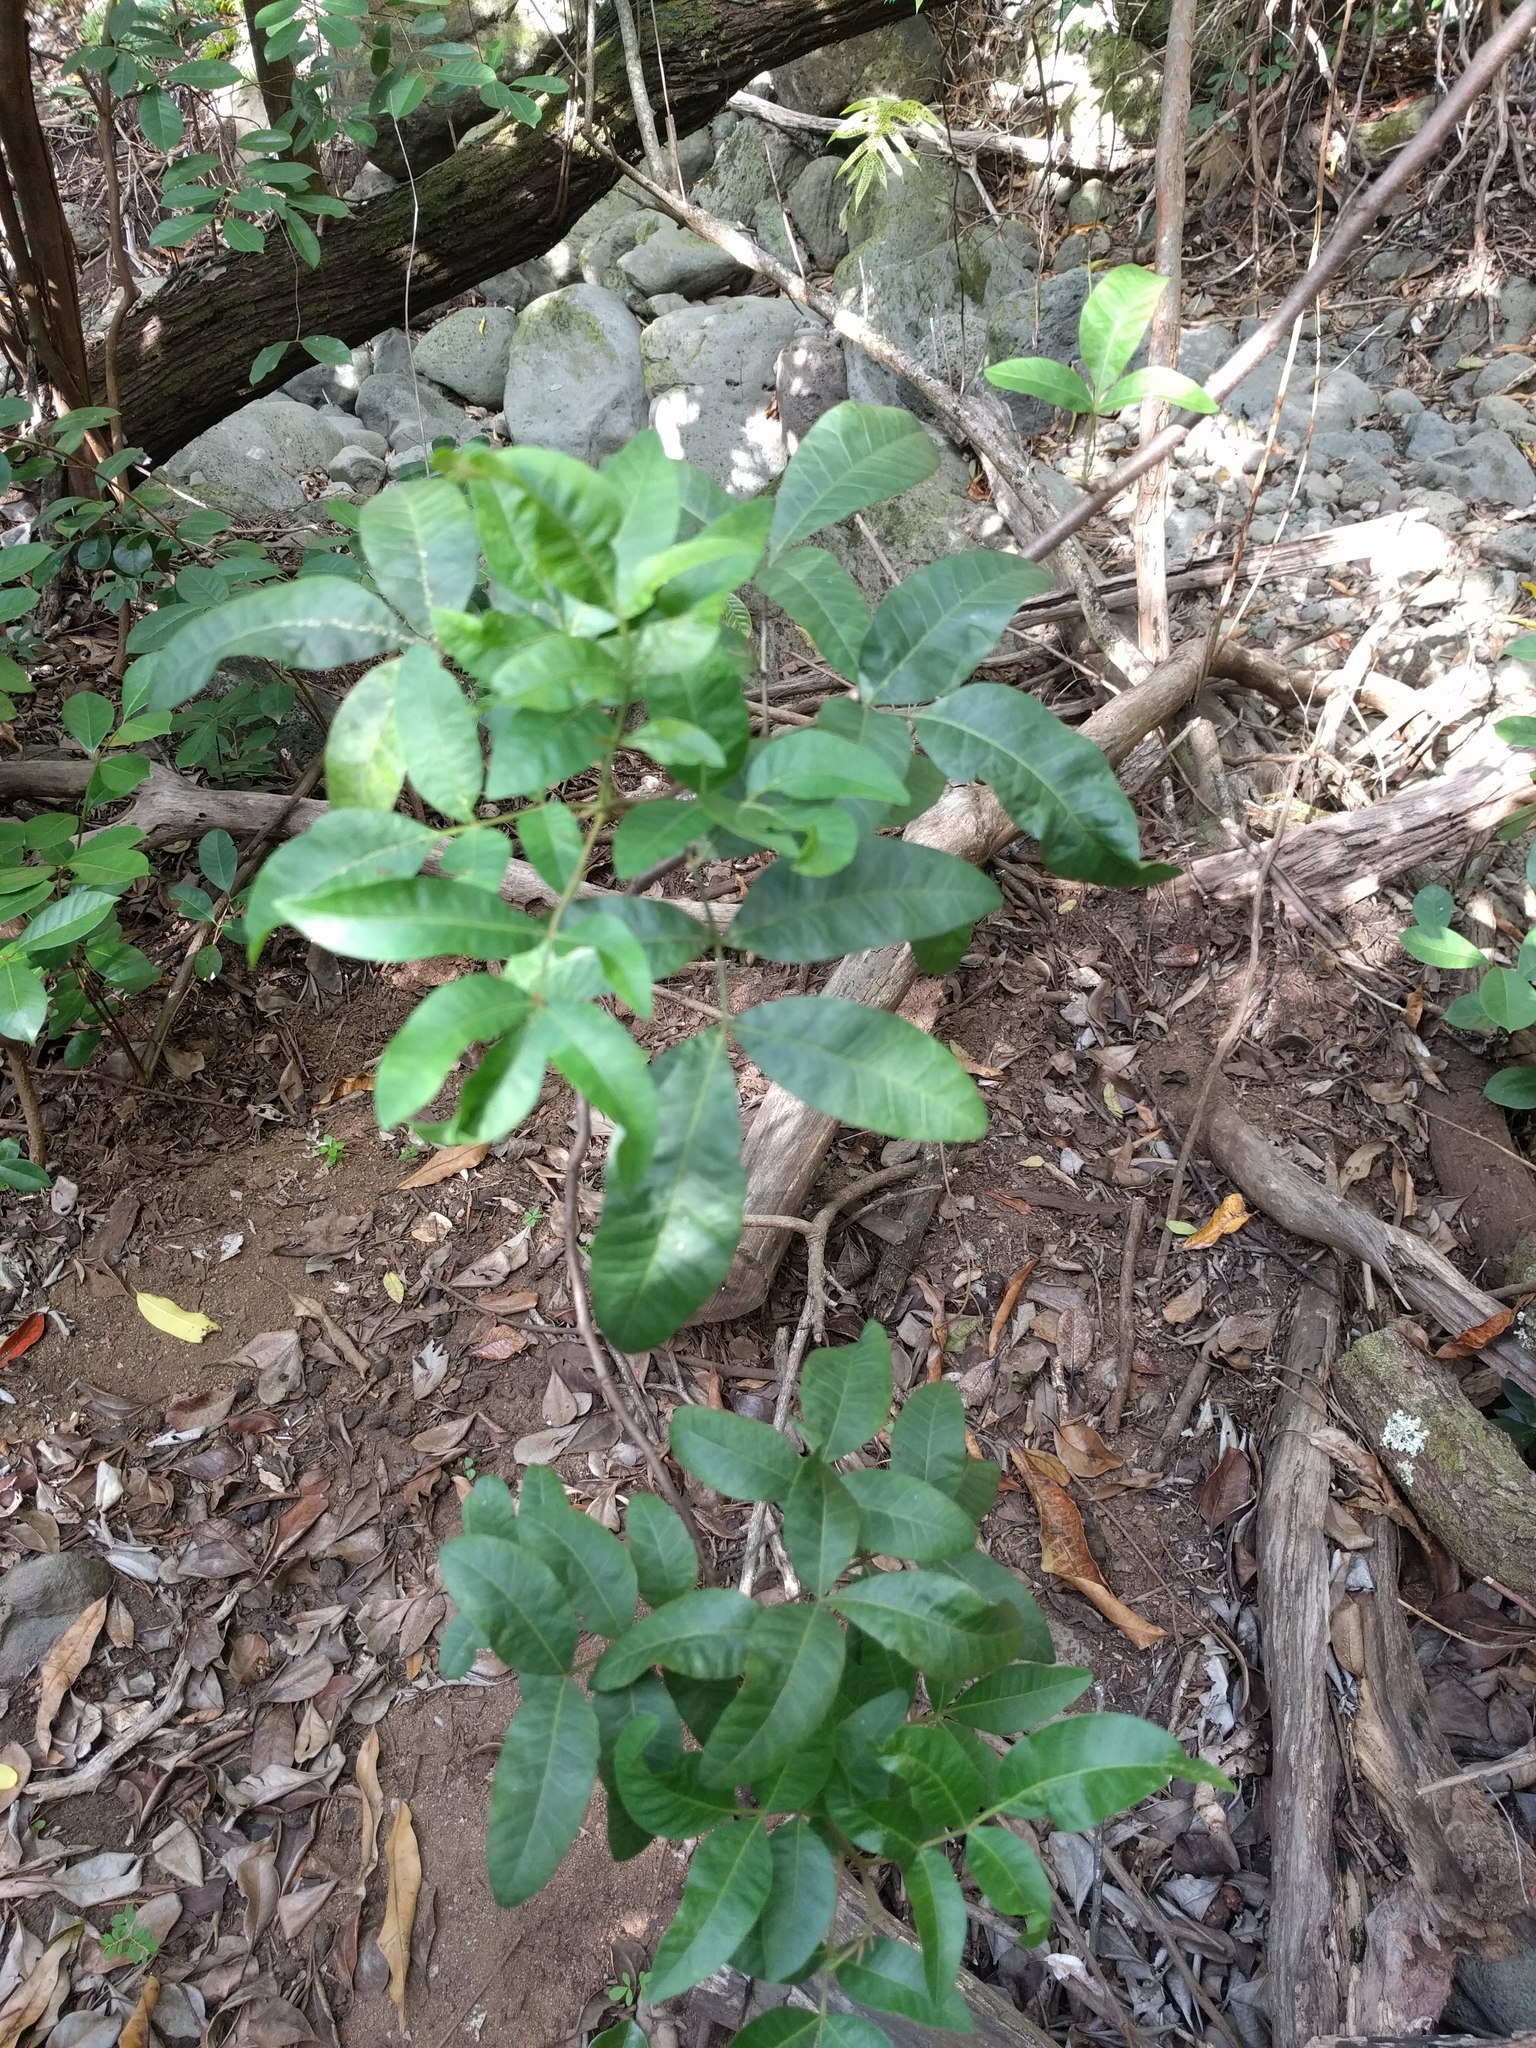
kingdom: Plantae
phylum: Tracheophyta
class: Magnoliopsida
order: Sapindales
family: Anacardiaceae
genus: Schinus
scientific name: Schinus terebinthifolia
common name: Brazilian peppertree
